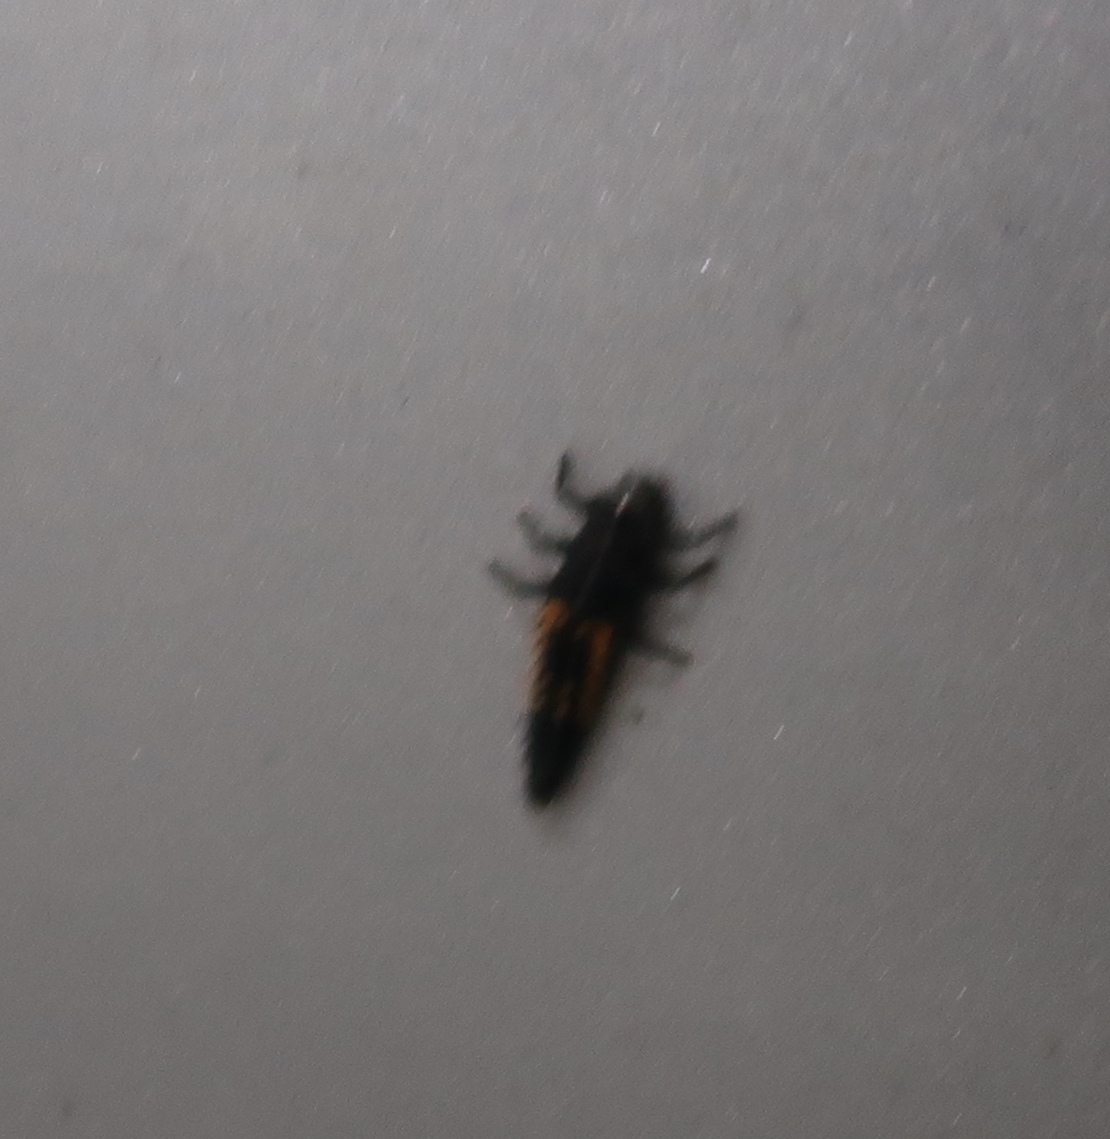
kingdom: Animalia
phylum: Arthropoda
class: Insecta
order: Coleoptera
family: Coccinellidae
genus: Harmonia
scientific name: Harmonia axyridis
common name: Harlequin ladybird
